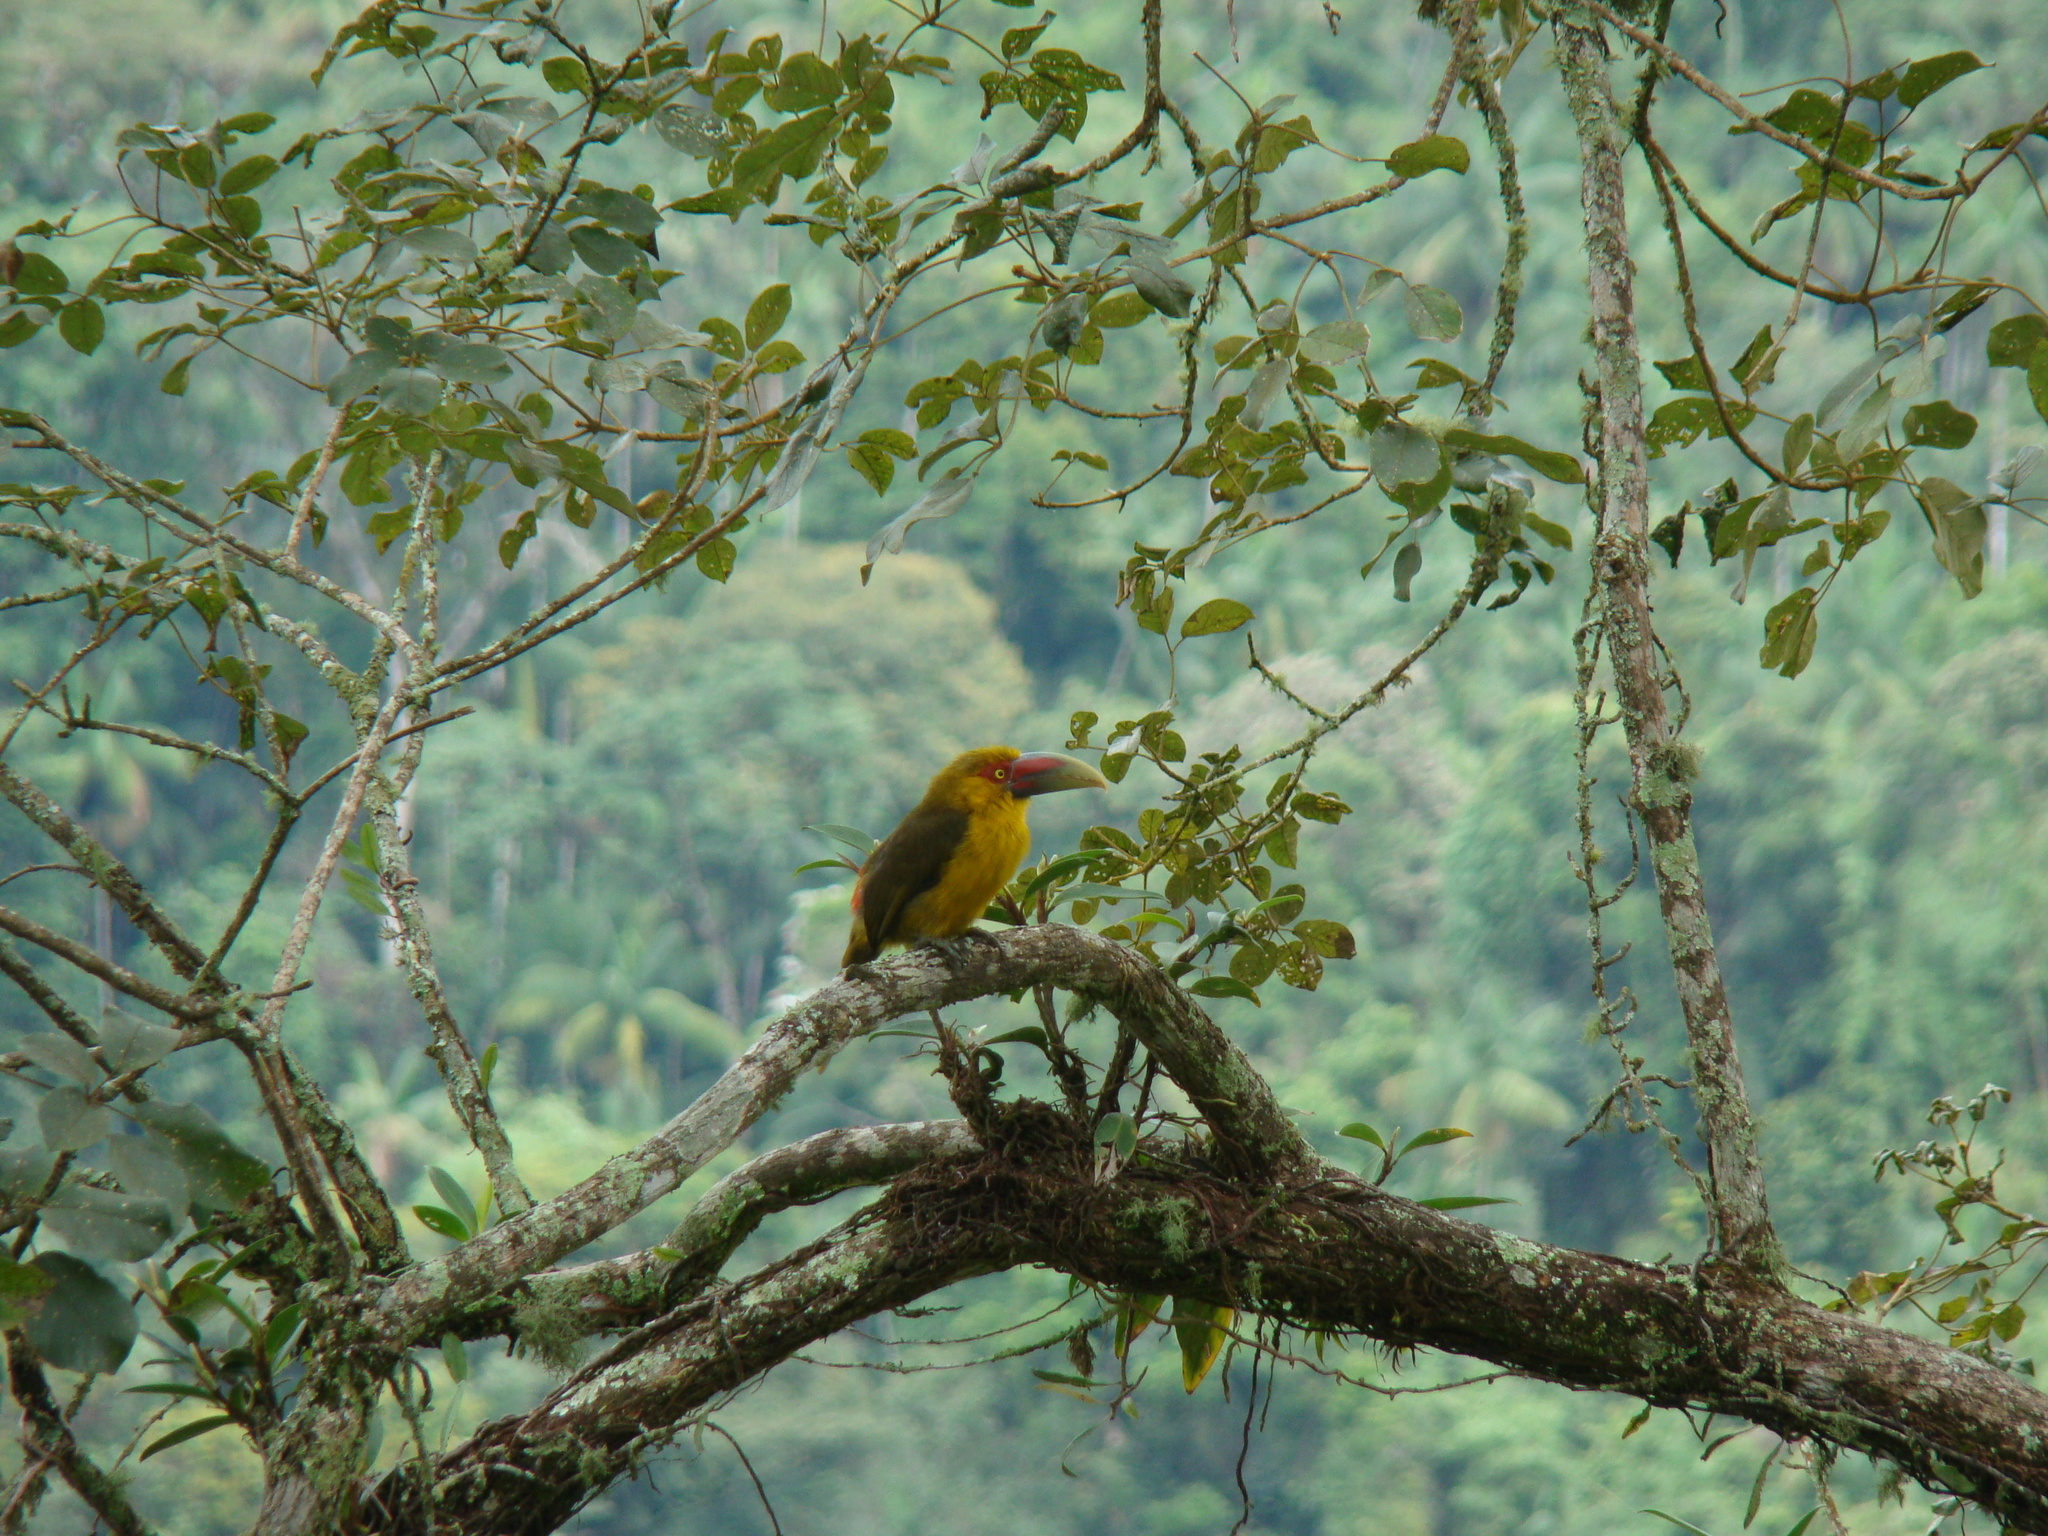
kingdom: Animalia
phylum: Chordata
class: Aves
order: Piciformes
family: Ramphastidae
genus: Pteroglossus
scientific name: Pteroglossus bailloni
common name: Saffron toucanet
